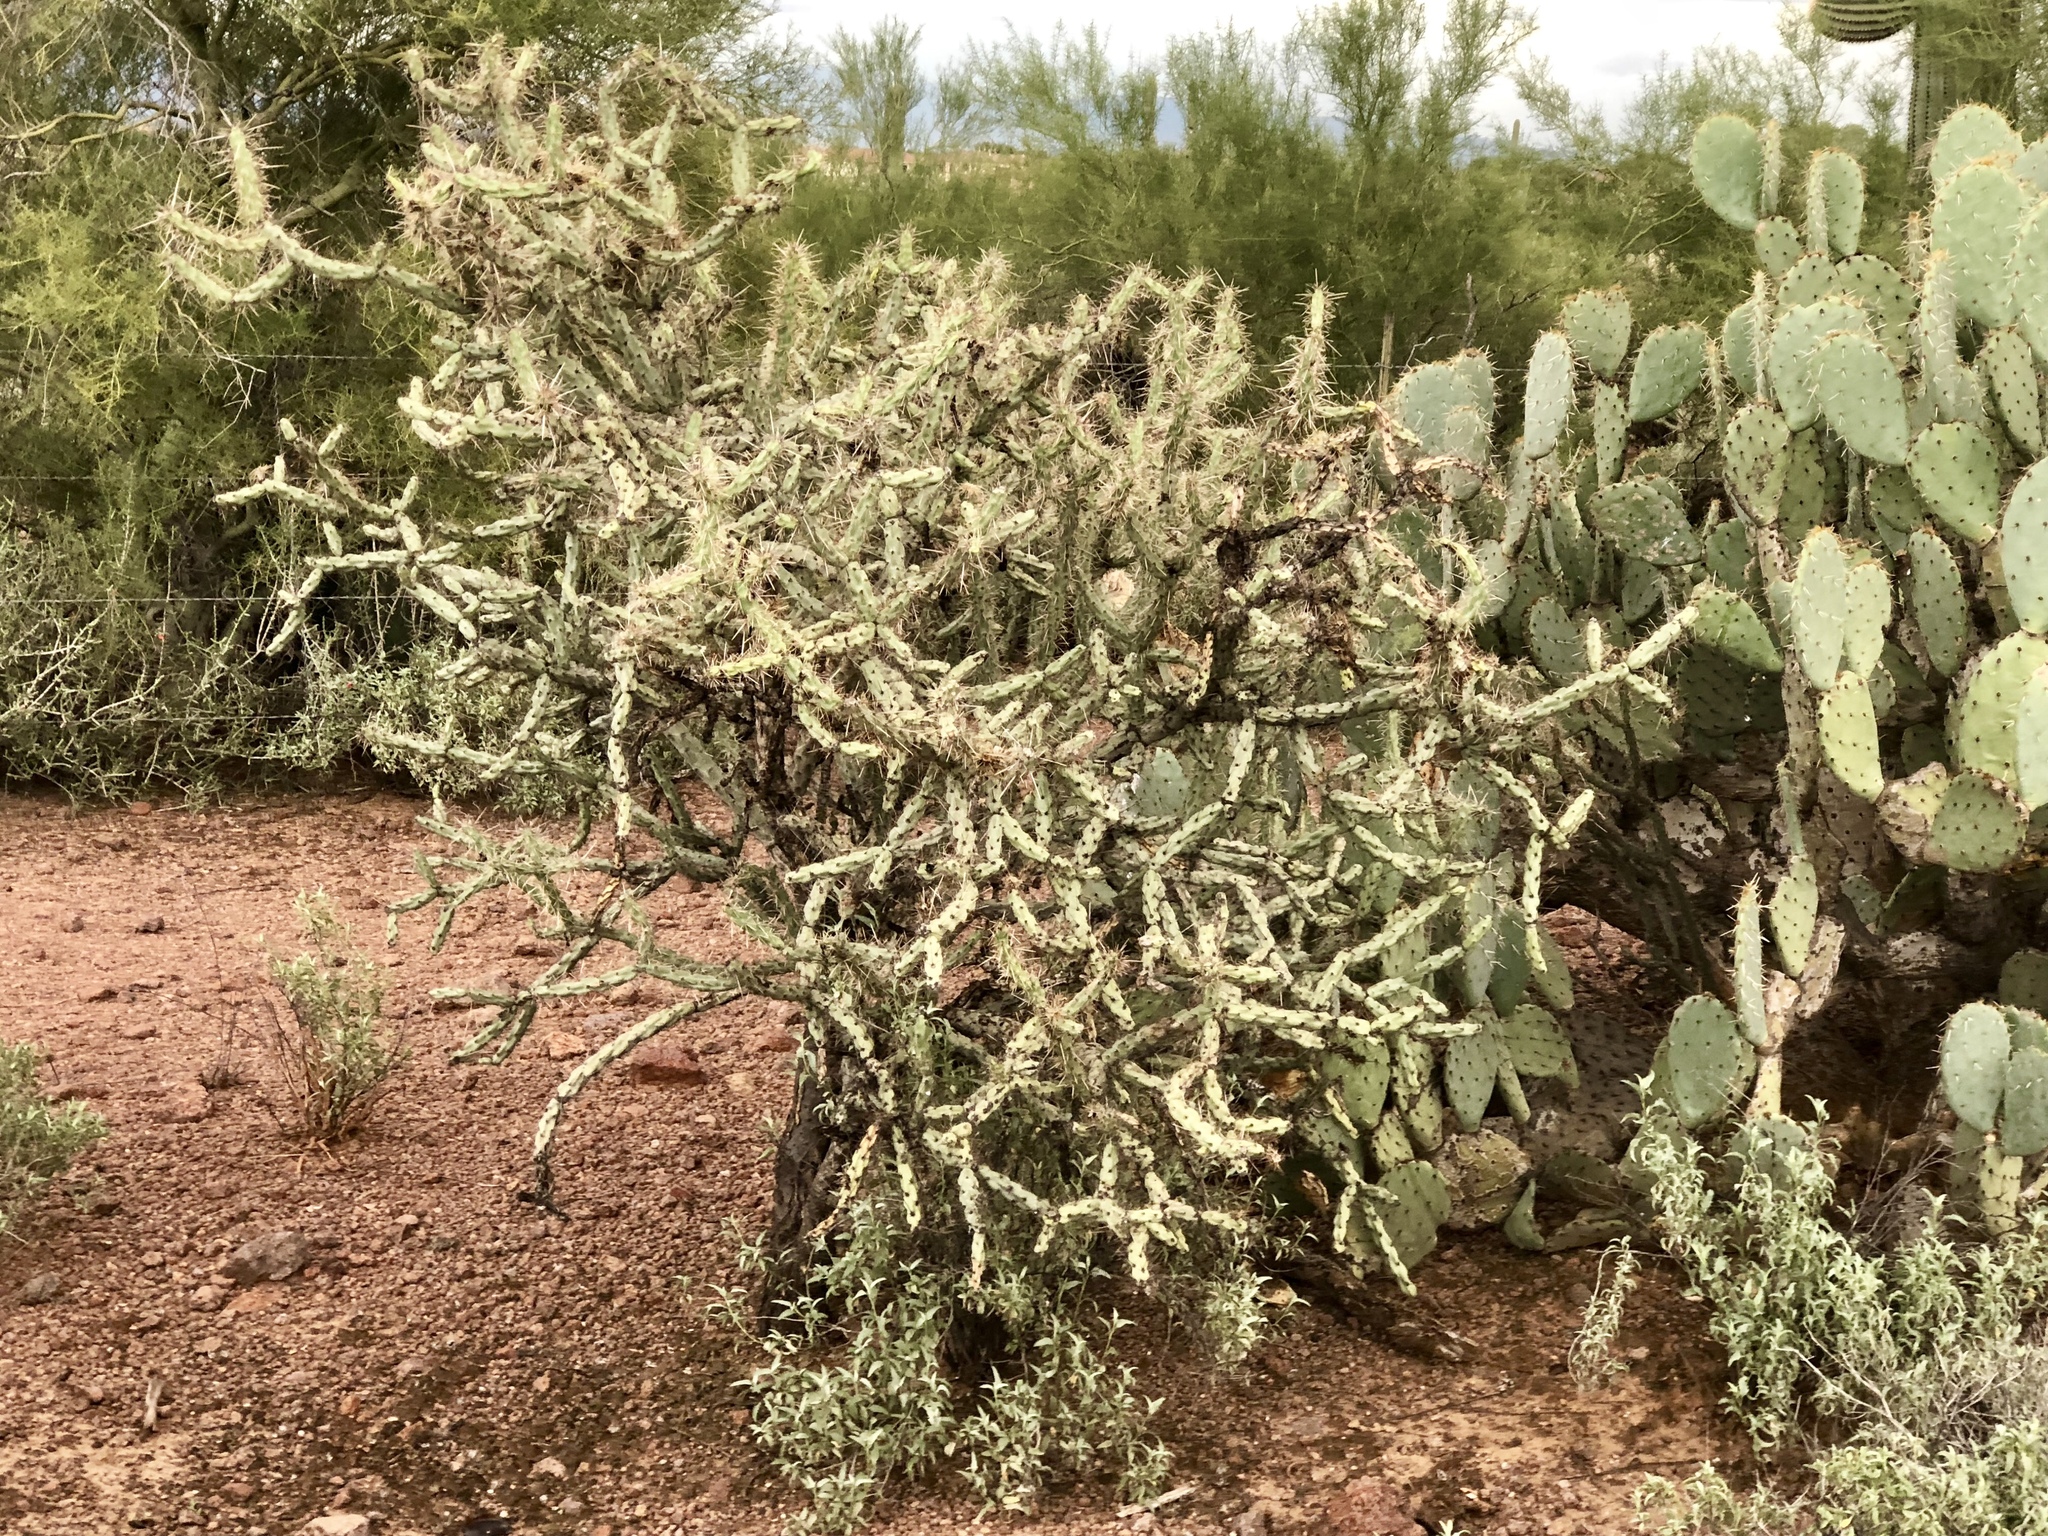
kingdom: Plantae
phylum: Tracheophyta
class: Magnoliopsida
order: Caryophyllales
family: Cactaceae
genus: Cylindropuntia
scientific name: Cylindropuntia thurberi
